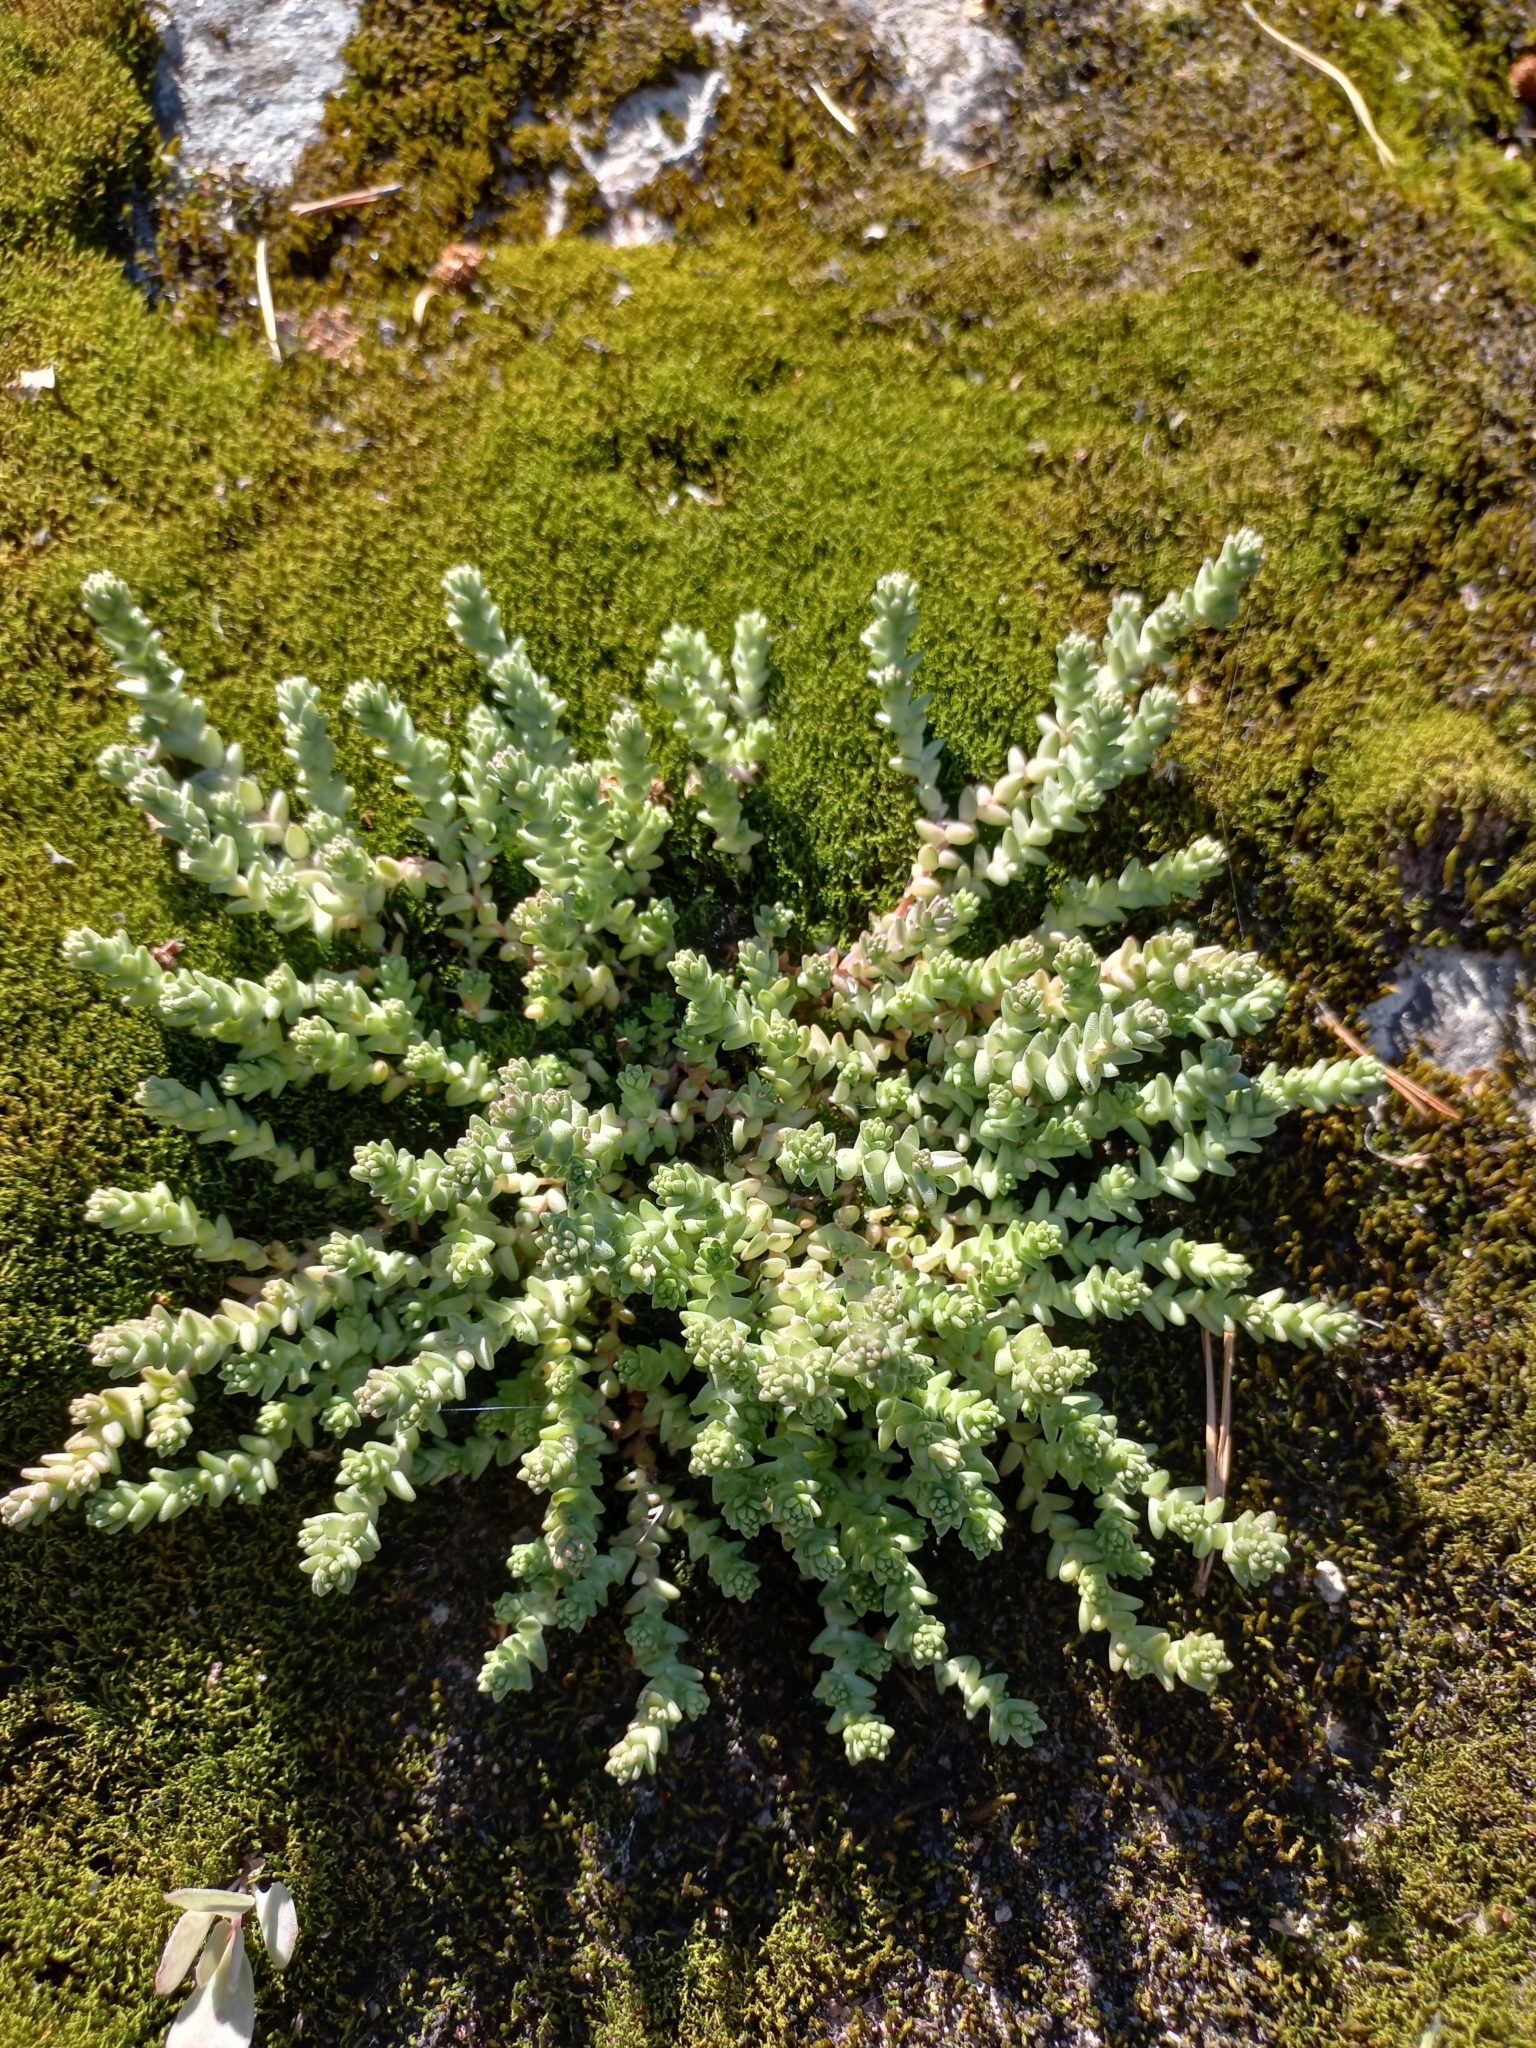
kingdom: Plantae
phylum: Tracheophyta
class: Magnoliopsida
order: Saxifragales
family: Crassulaceae
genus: Sedum
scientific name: Sedum acre
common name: Biting stonecrop
